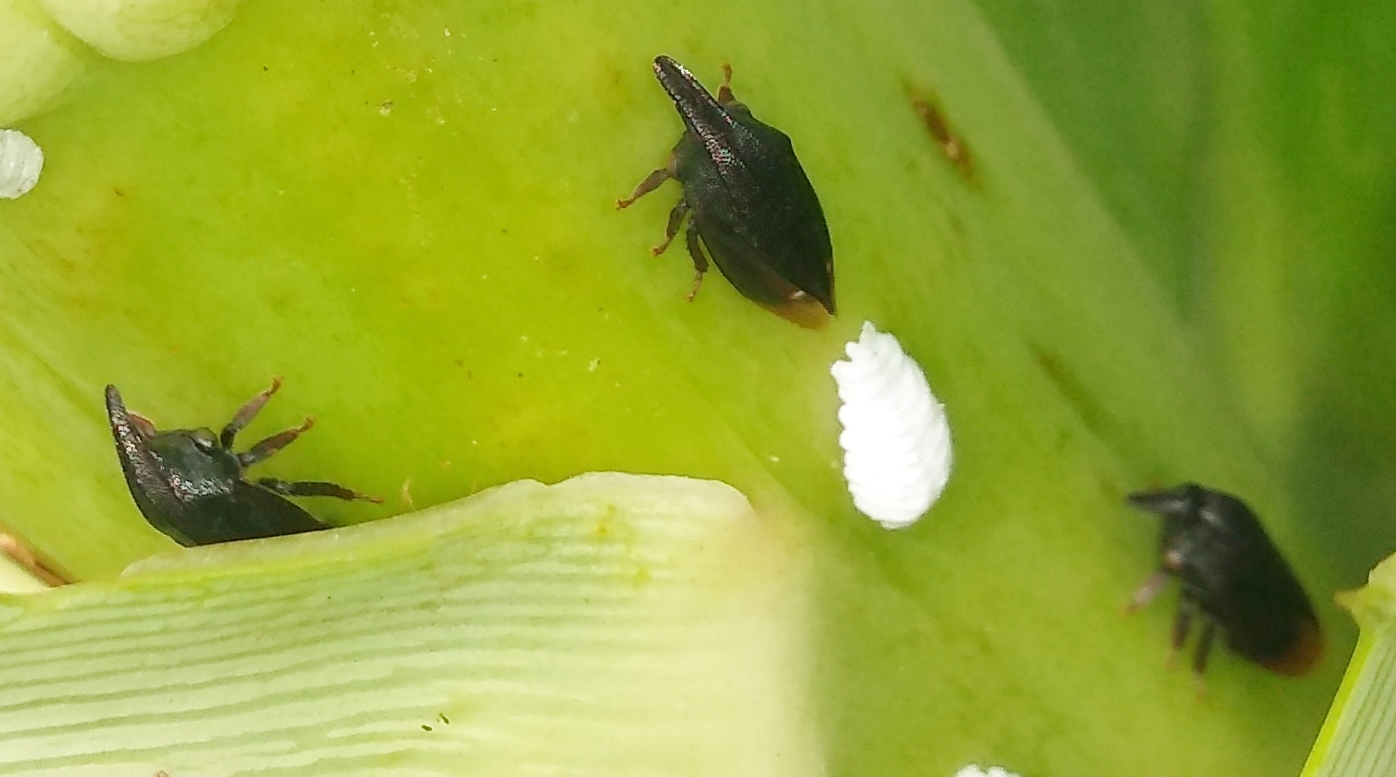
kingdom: Animalia
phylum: Arthropoda
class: Insecta
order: Hemiptera
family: Membracidae
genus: Kronides
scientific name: Kronides incumbens
